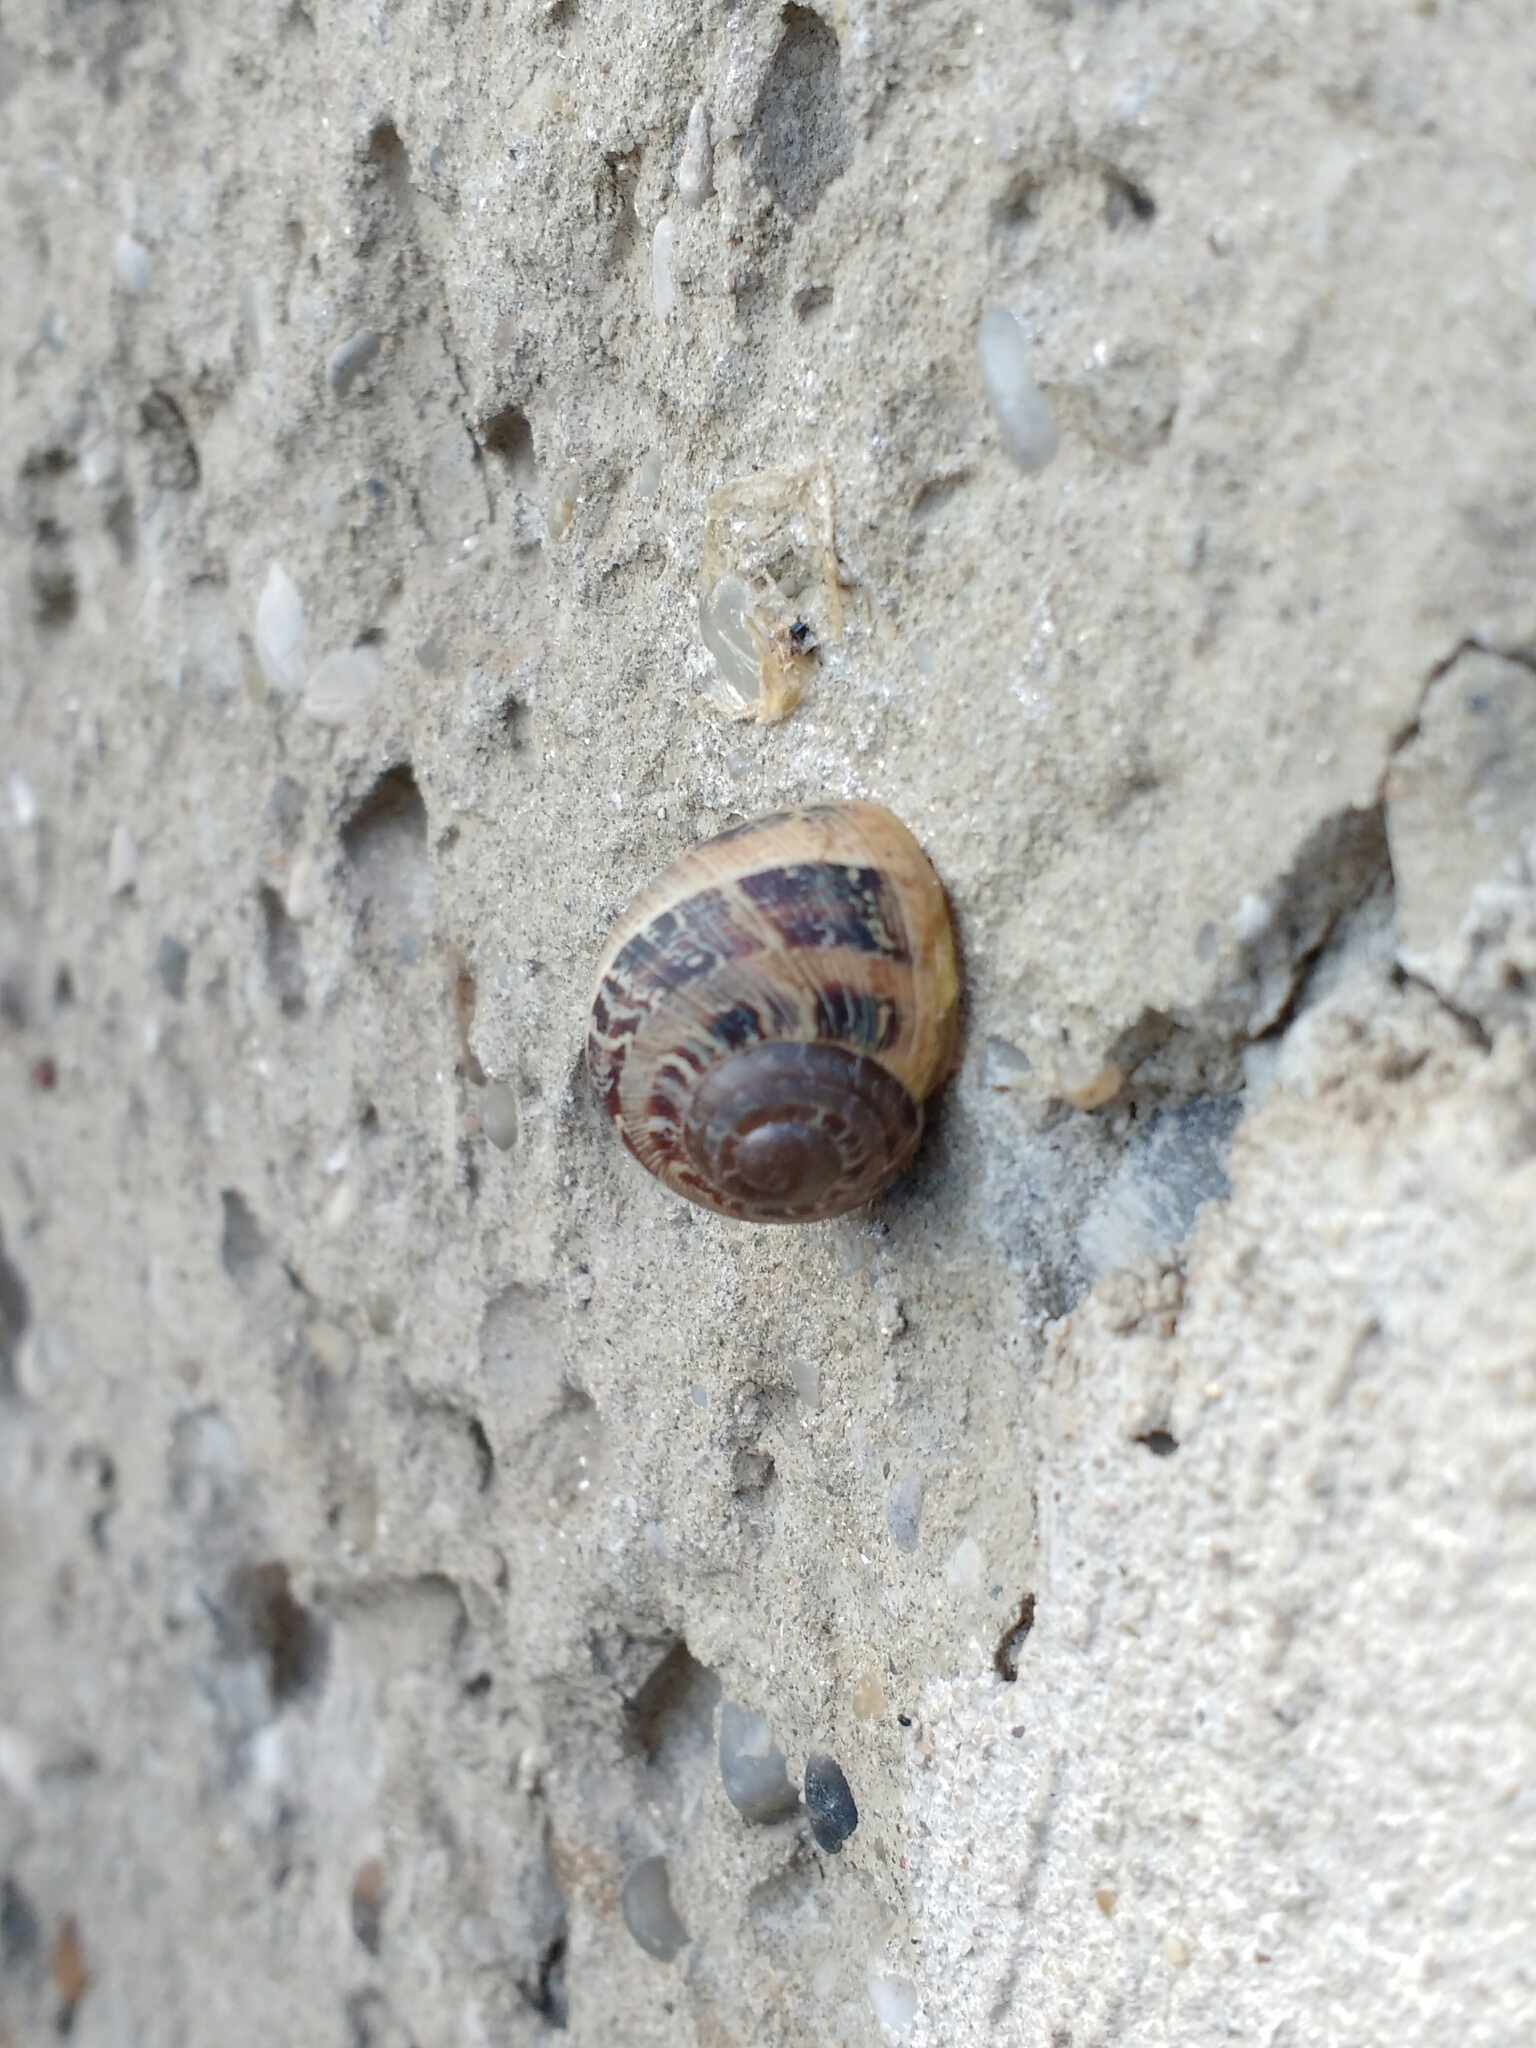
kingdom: Animalia
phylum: Mollusca
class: Gastropoda
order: Stylommatophora
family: Helicidae
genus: Cornu
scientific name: Cornu aspersum
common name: Brown garden snail
